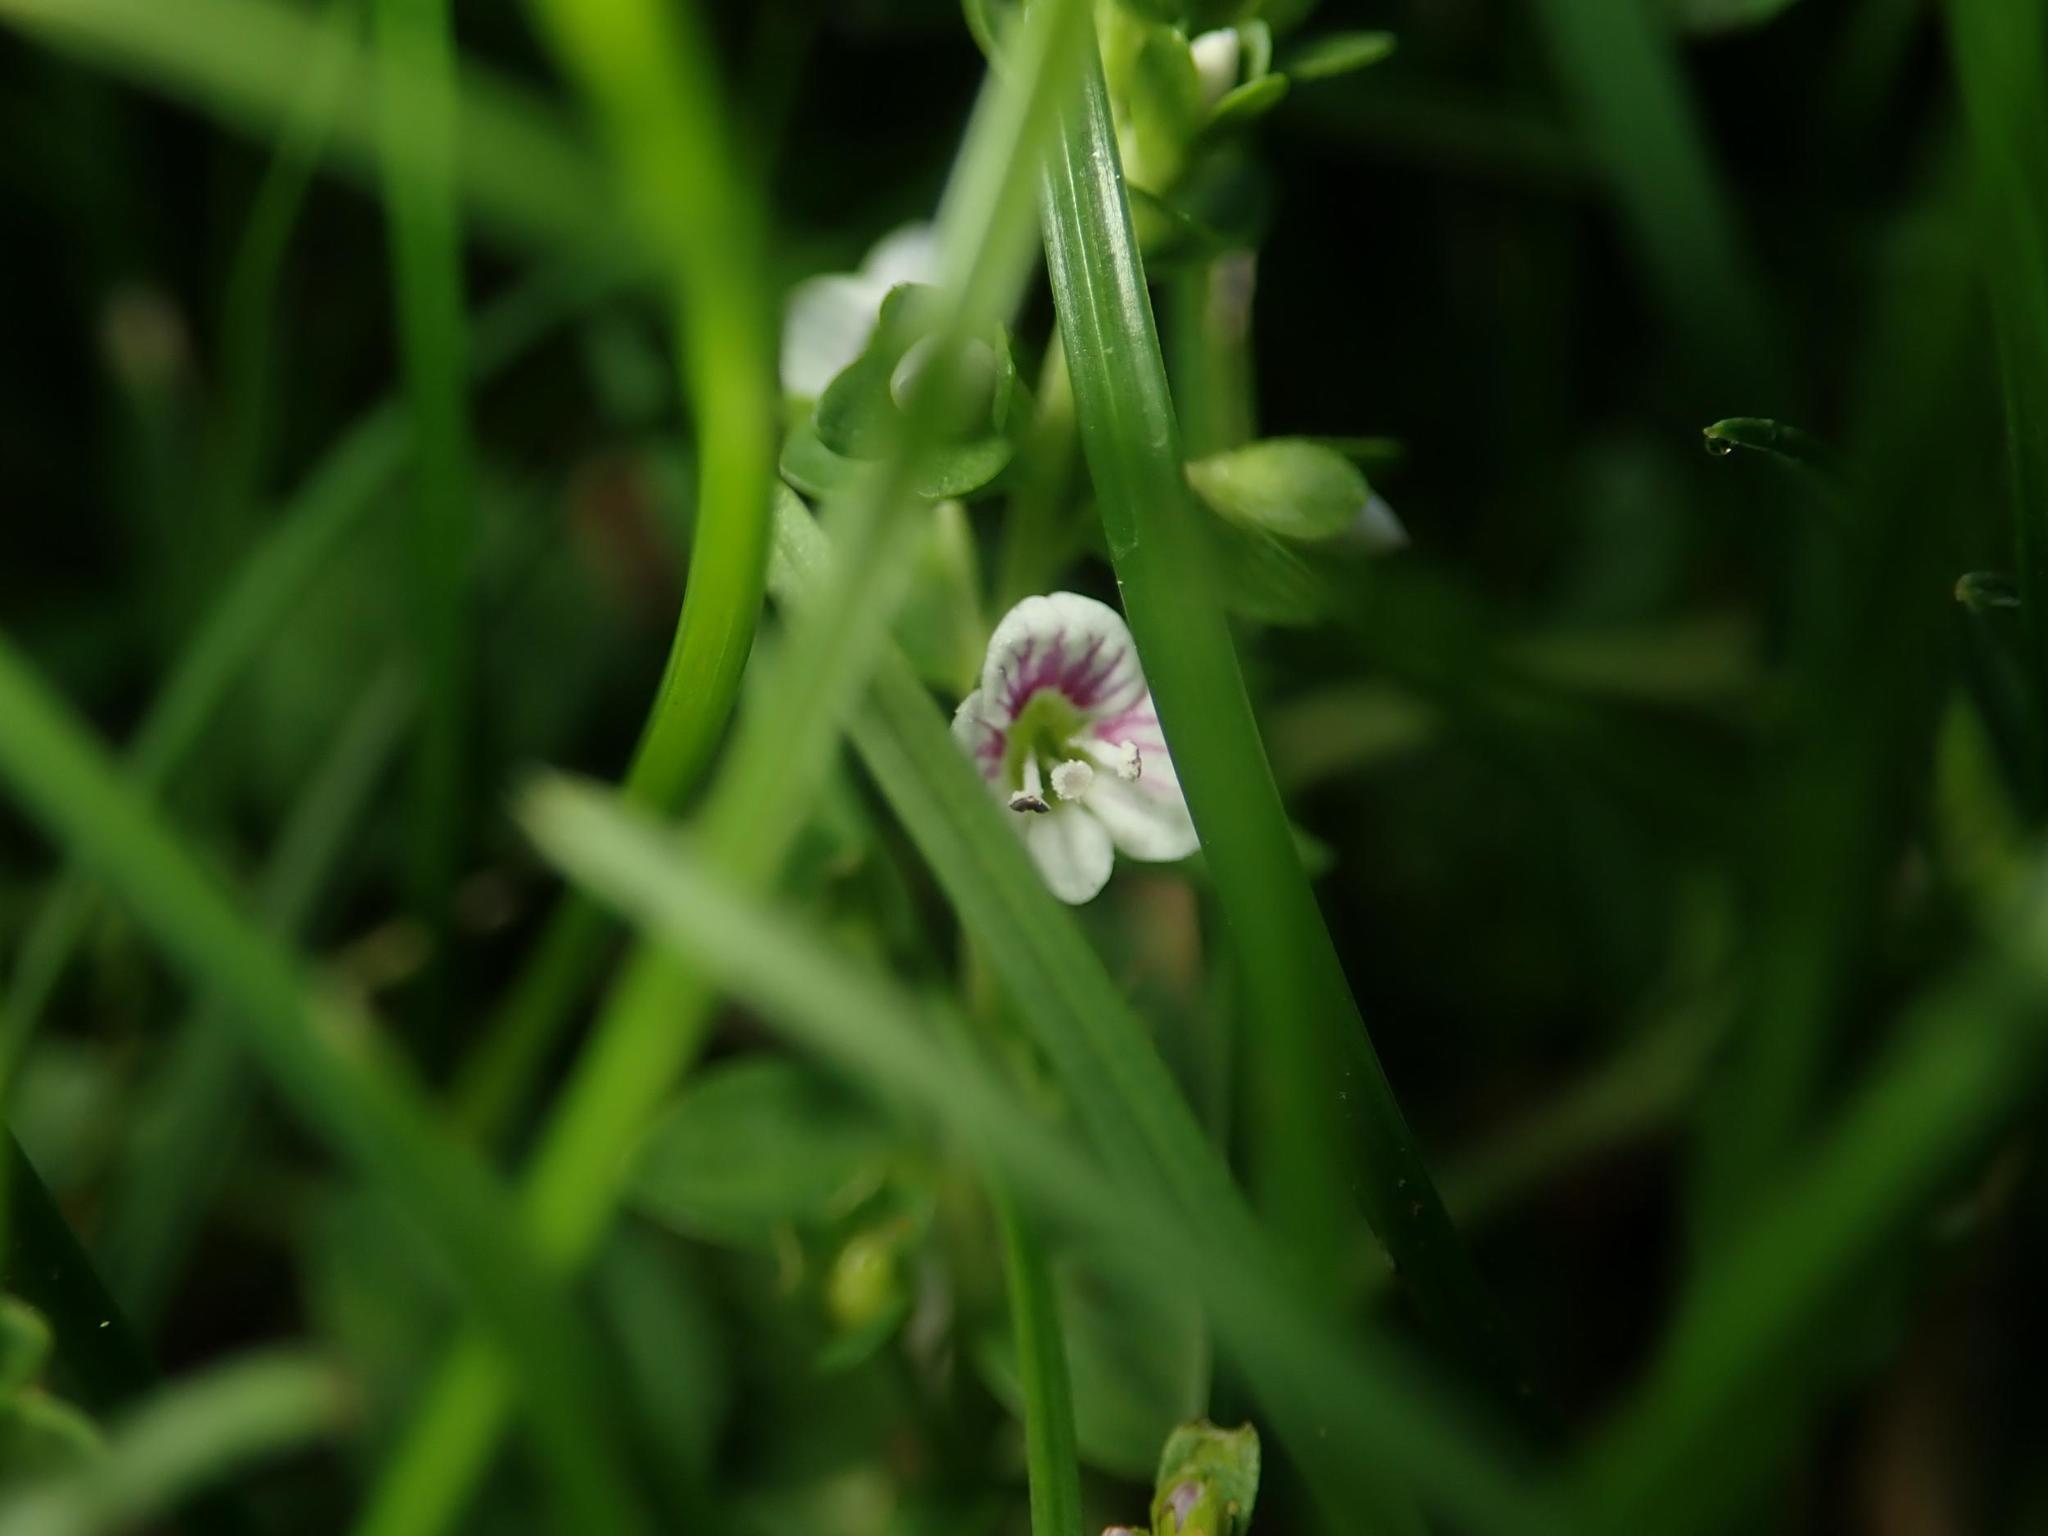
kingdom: Plantae
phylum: Tracheophyta
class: Magnoliopsida
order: Lamiales
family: Plantaginaceae
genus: Veronica
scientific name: Veronica serpyllifolia
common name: Thyme-leaved speedwell
